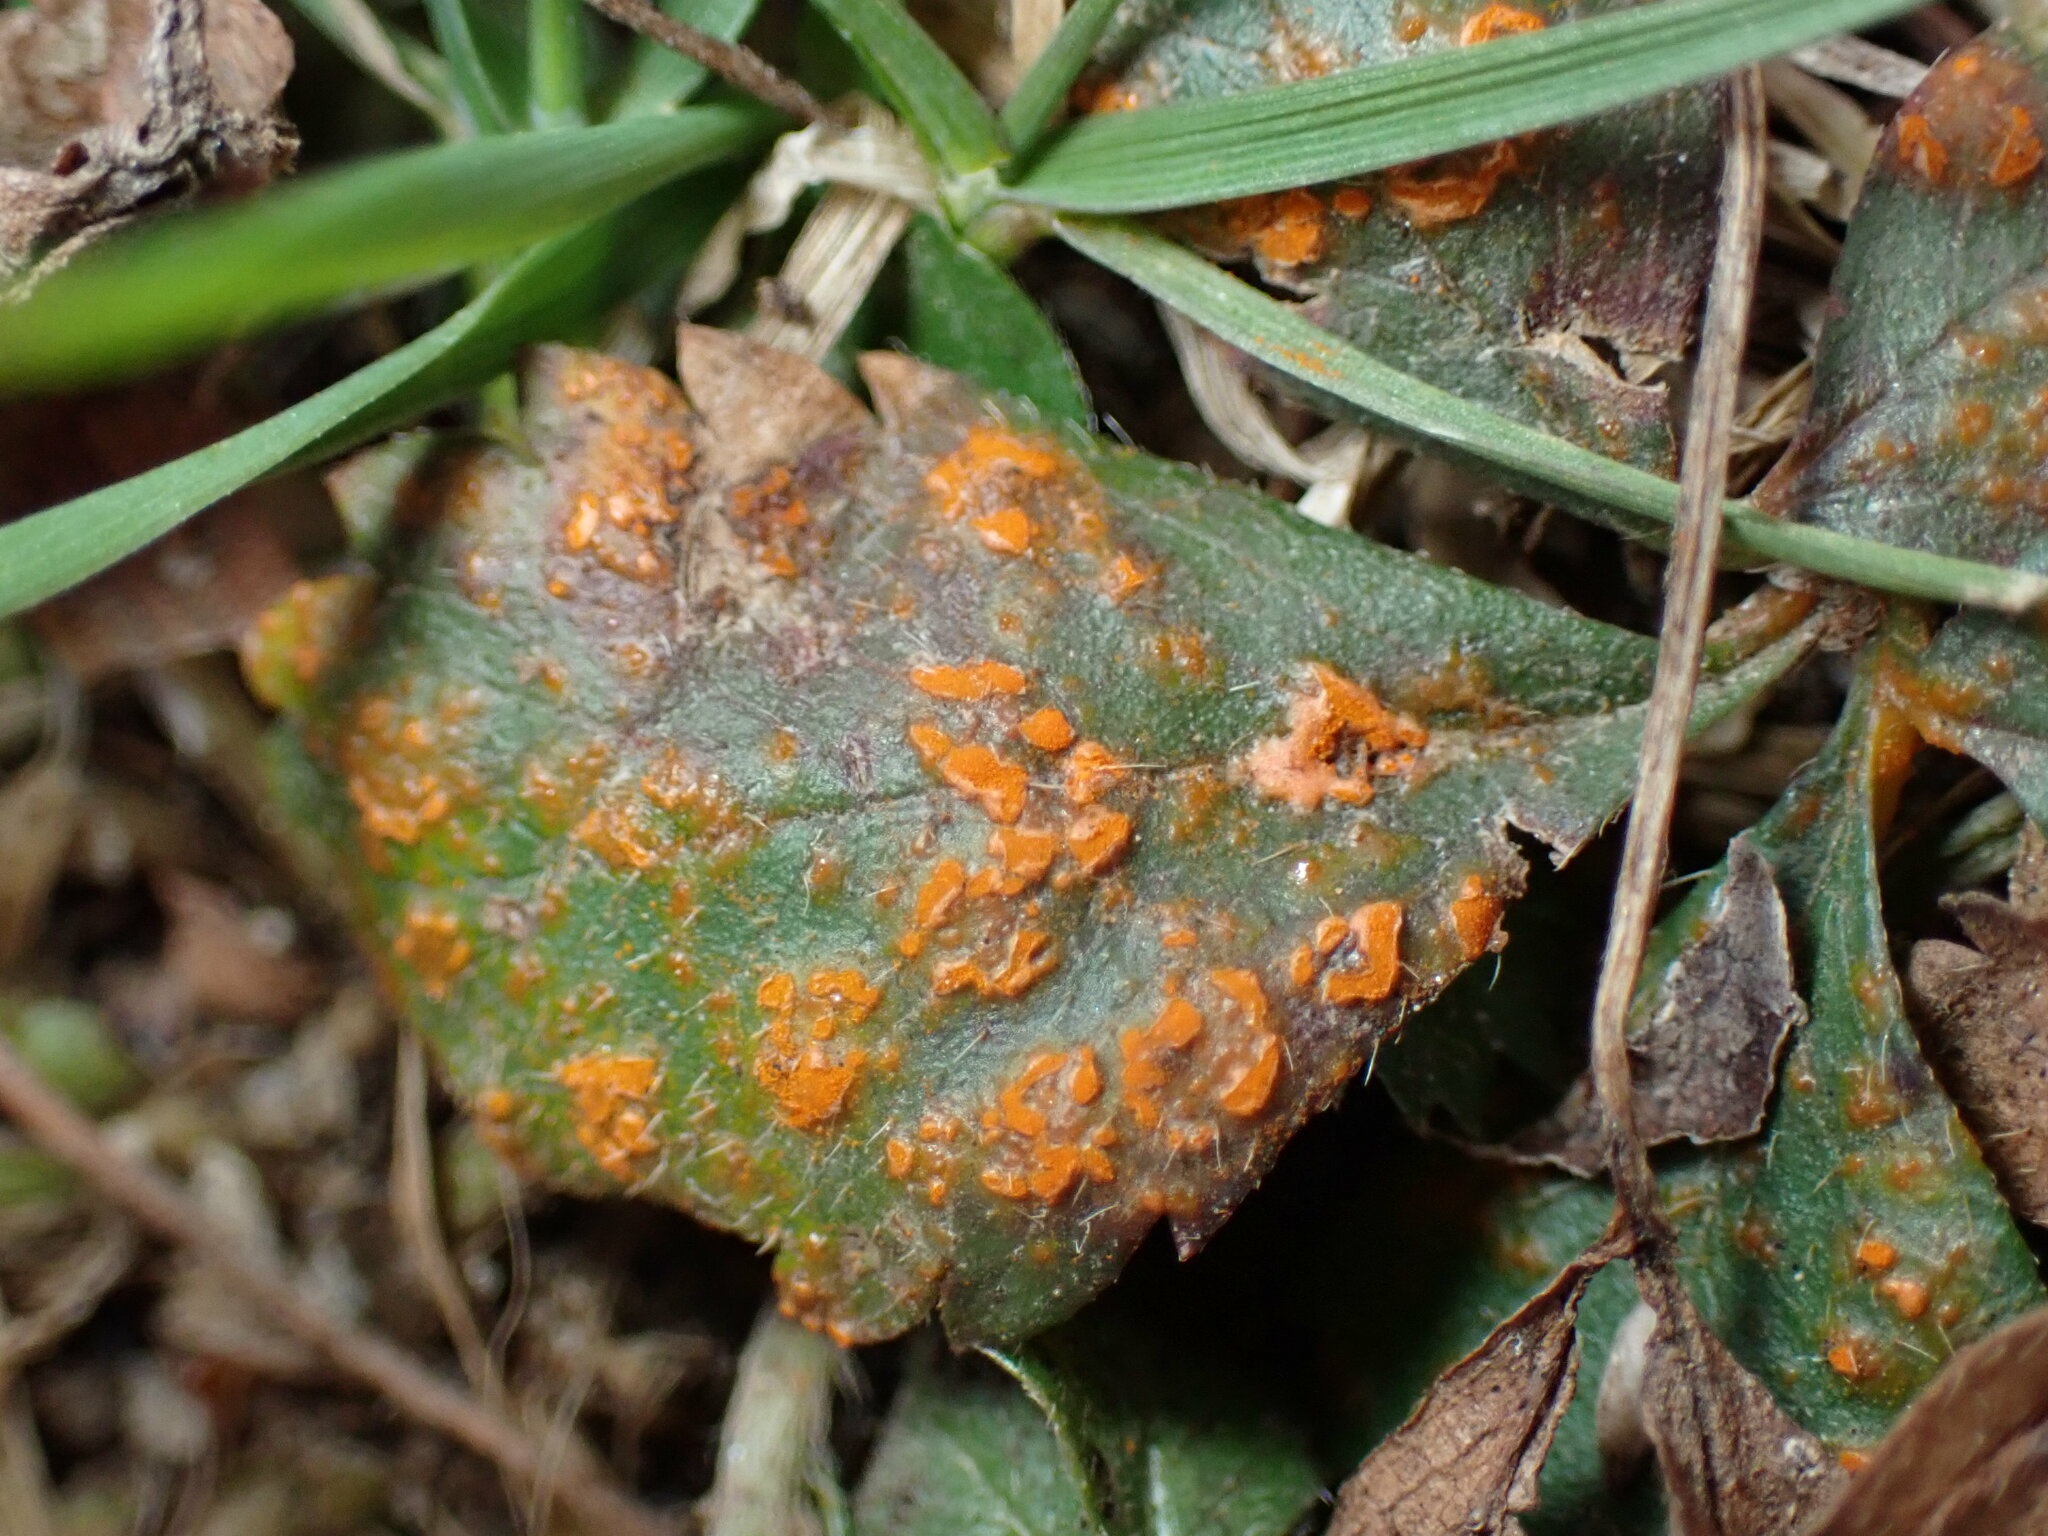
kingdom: Fungi
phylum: Basidiomycota
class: Pucciniomycetes
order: Pucciniales
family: Phragmidiaceae
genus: Phragmidium
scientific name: Phragmidium potentillae
